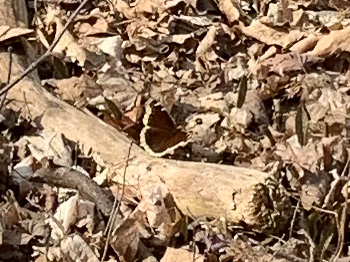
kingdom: Animalia
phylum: Arthropoda
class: Insecta
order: Lepidoptera
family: Nymphalidae
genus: Nymphalis
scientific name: Nymphalis antiopa
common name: Camberwell beauty
